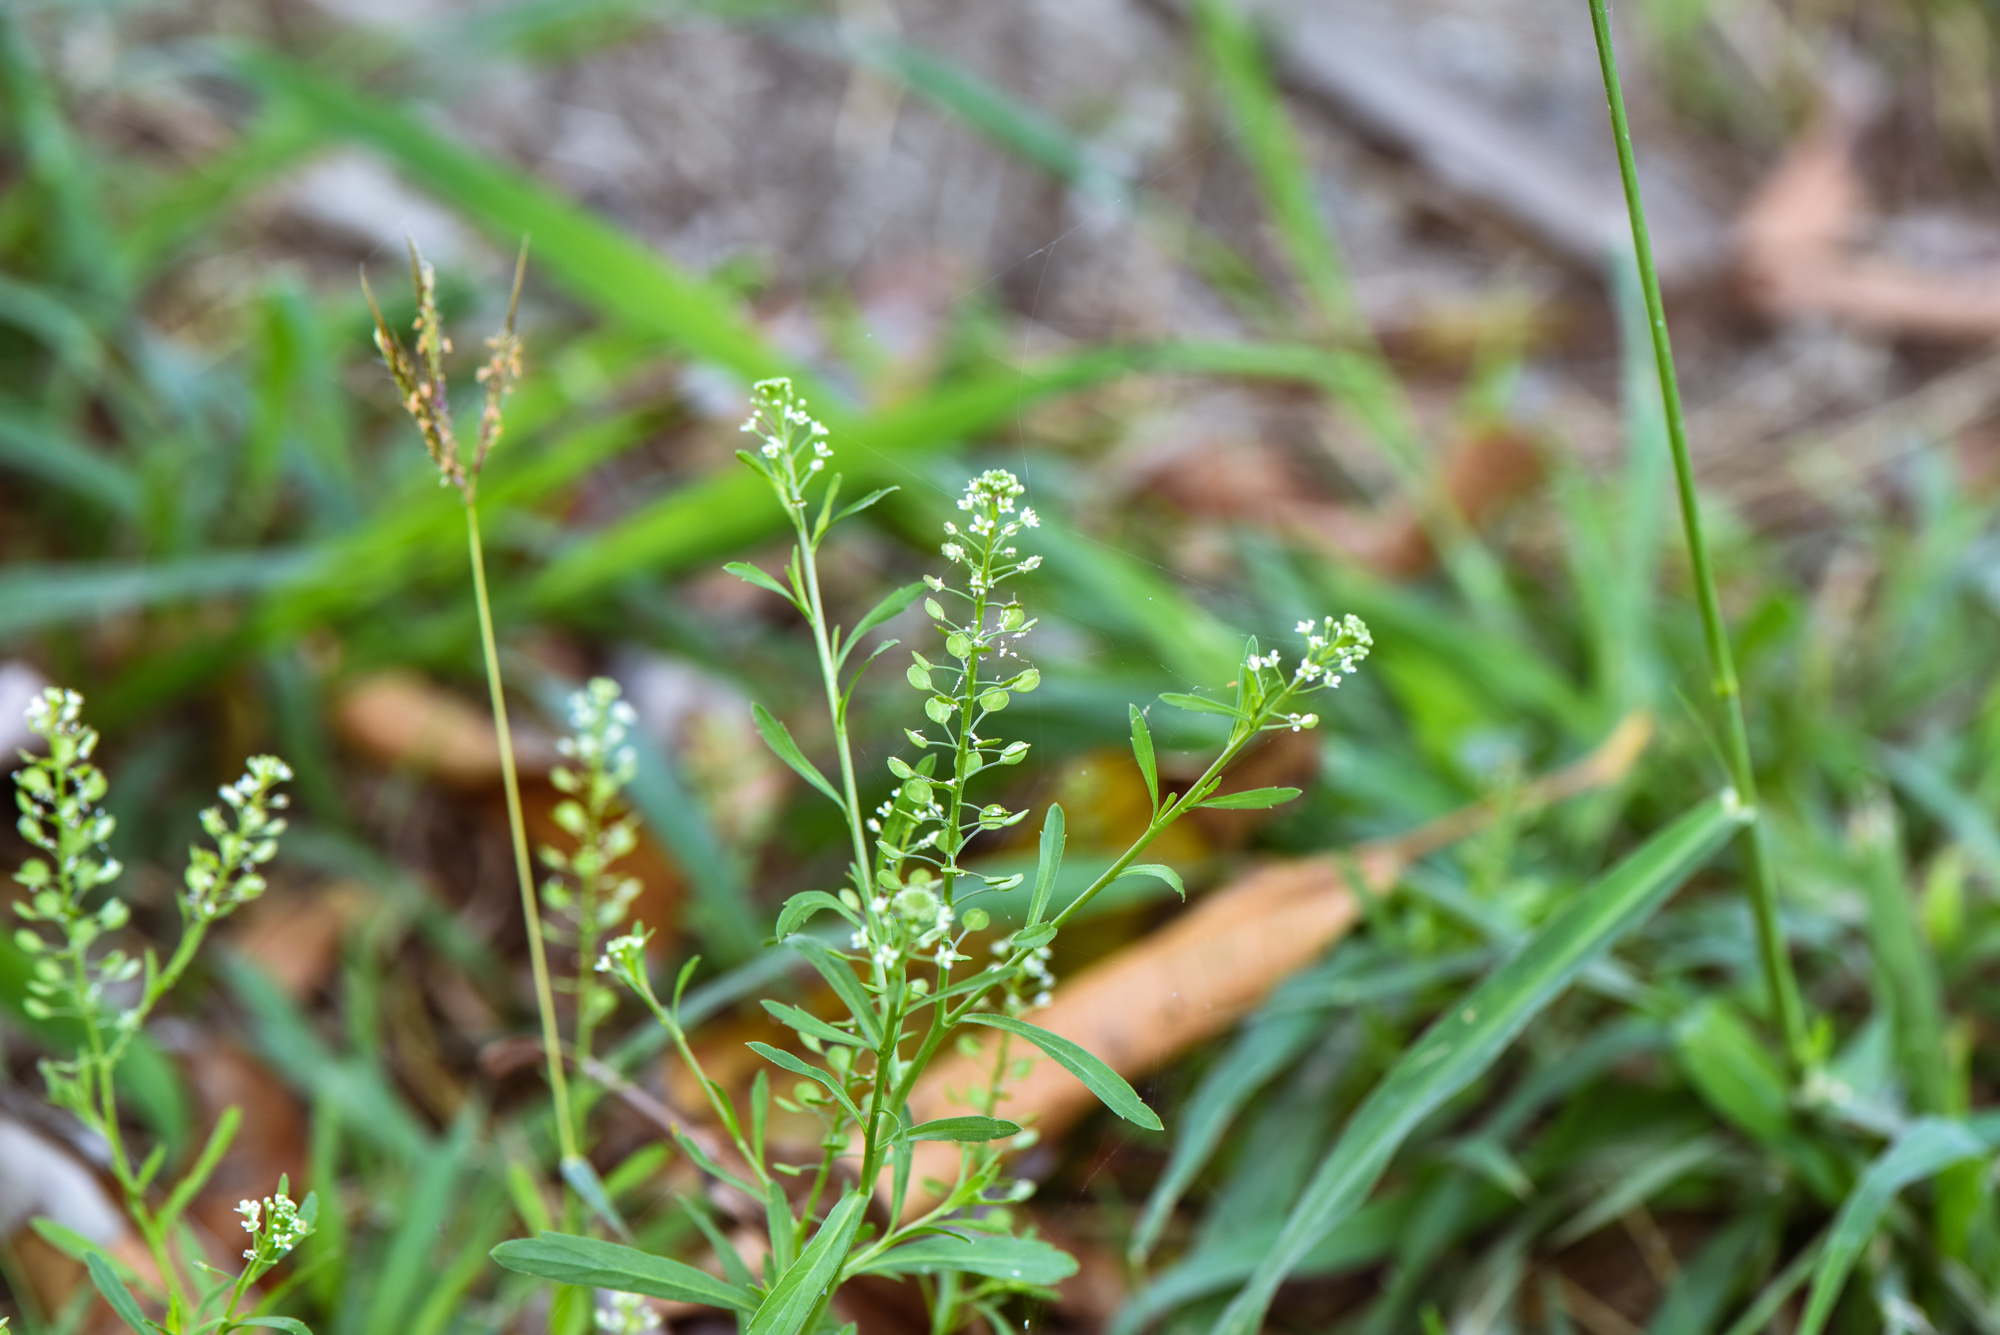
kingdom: Plantae
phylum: Tracheophyta
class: Magnoliopsida
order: Brassicales
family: Brassicaceae
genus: Lepidium
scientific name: Lepidium virginicum
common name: Least pepperwort
